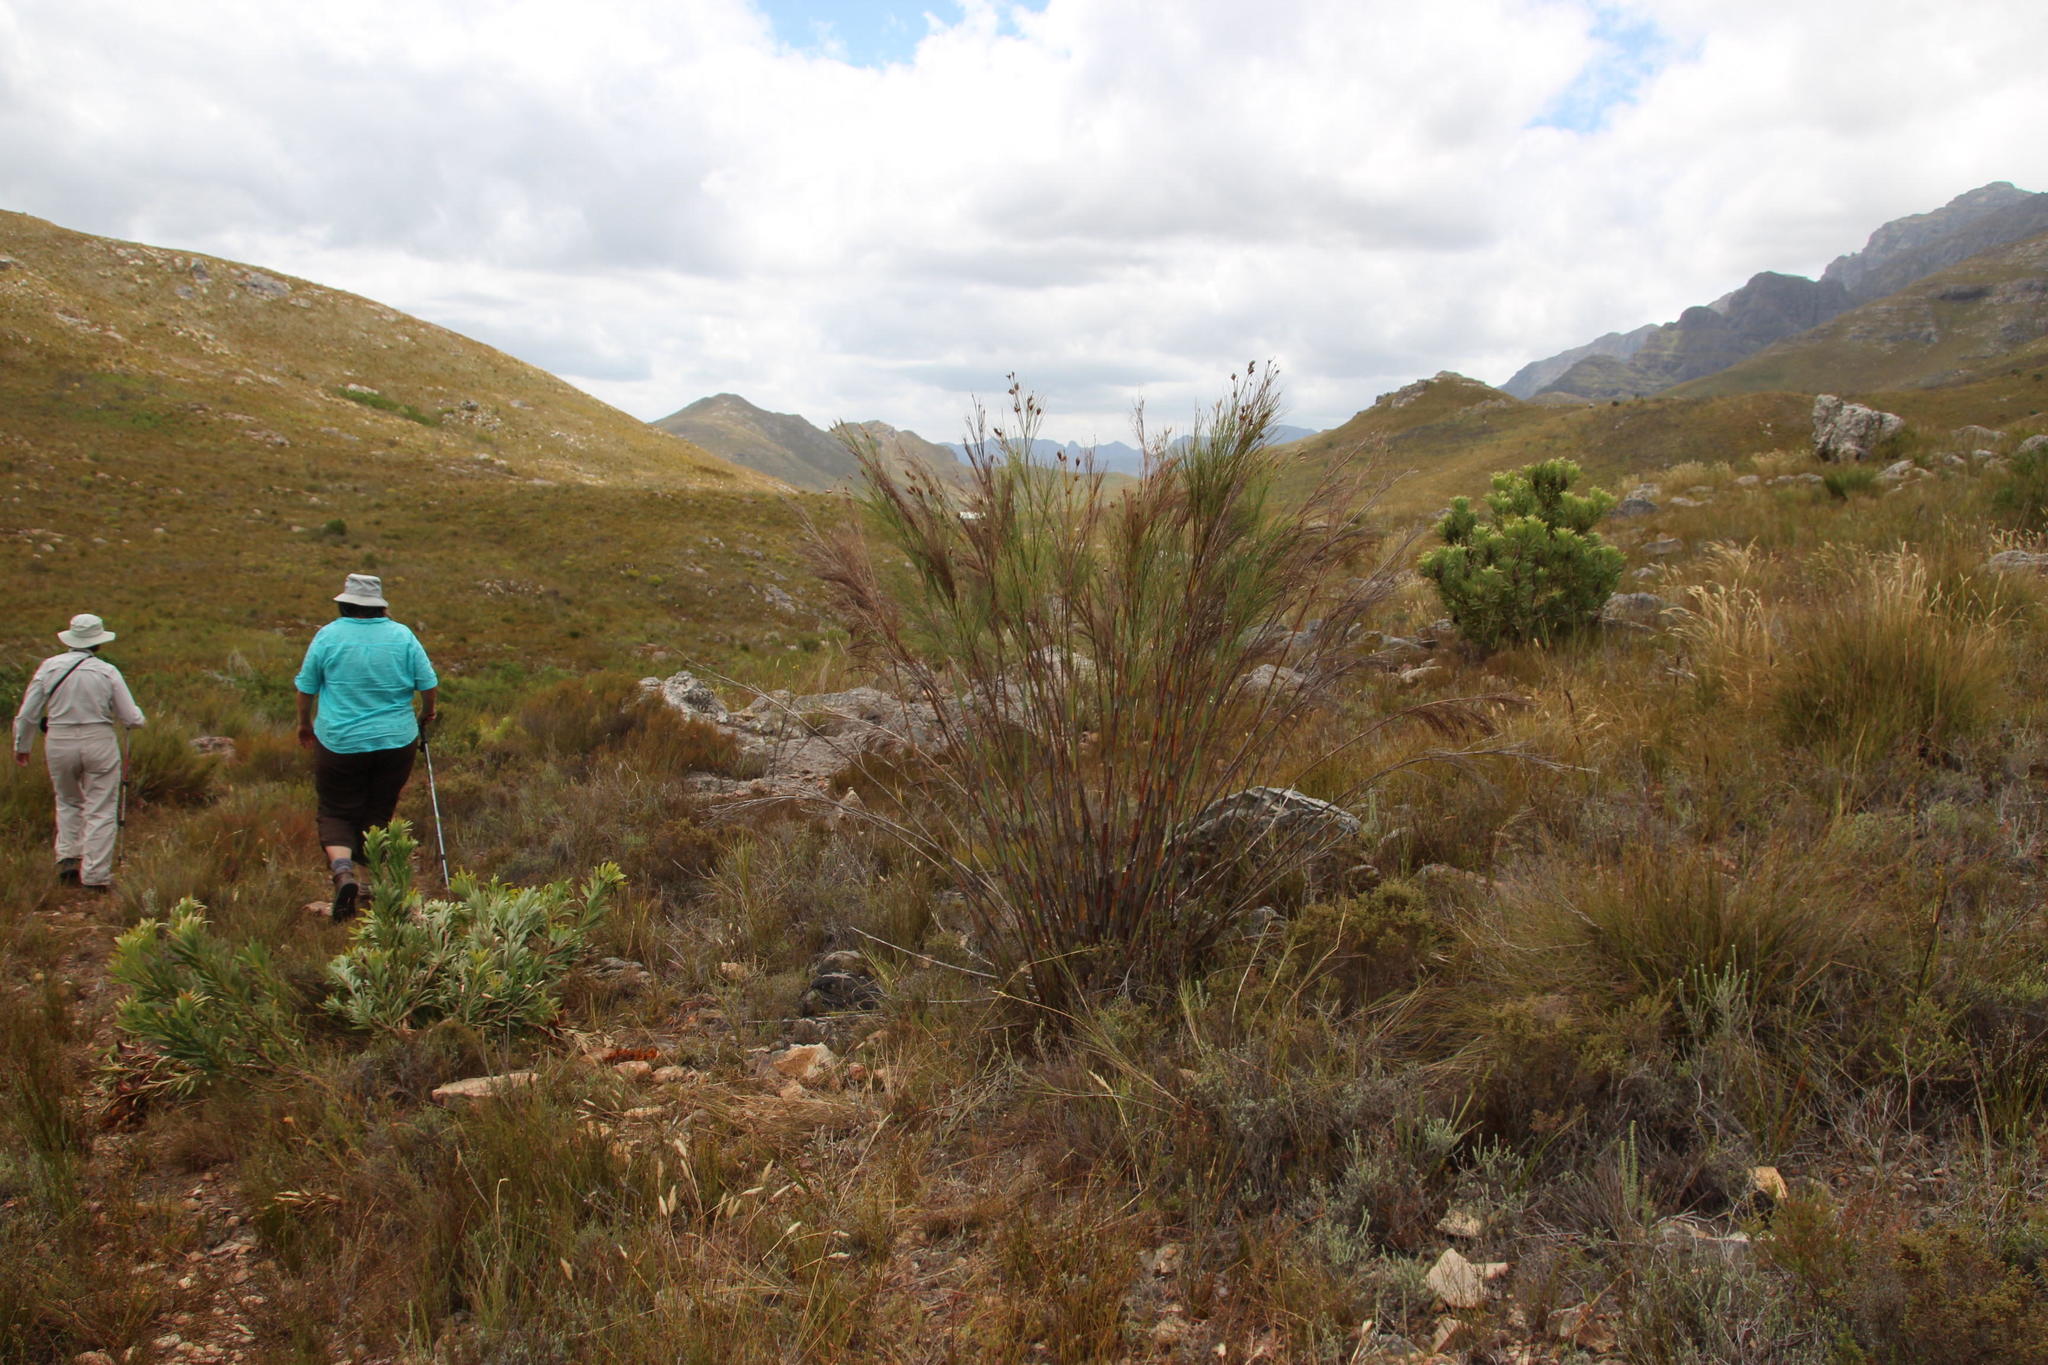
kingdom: Plantae
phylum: Tracheophyta
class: Liliopsida
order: Poales
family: Restionaceae
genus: Cannomois
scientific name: Cannomois robusta
